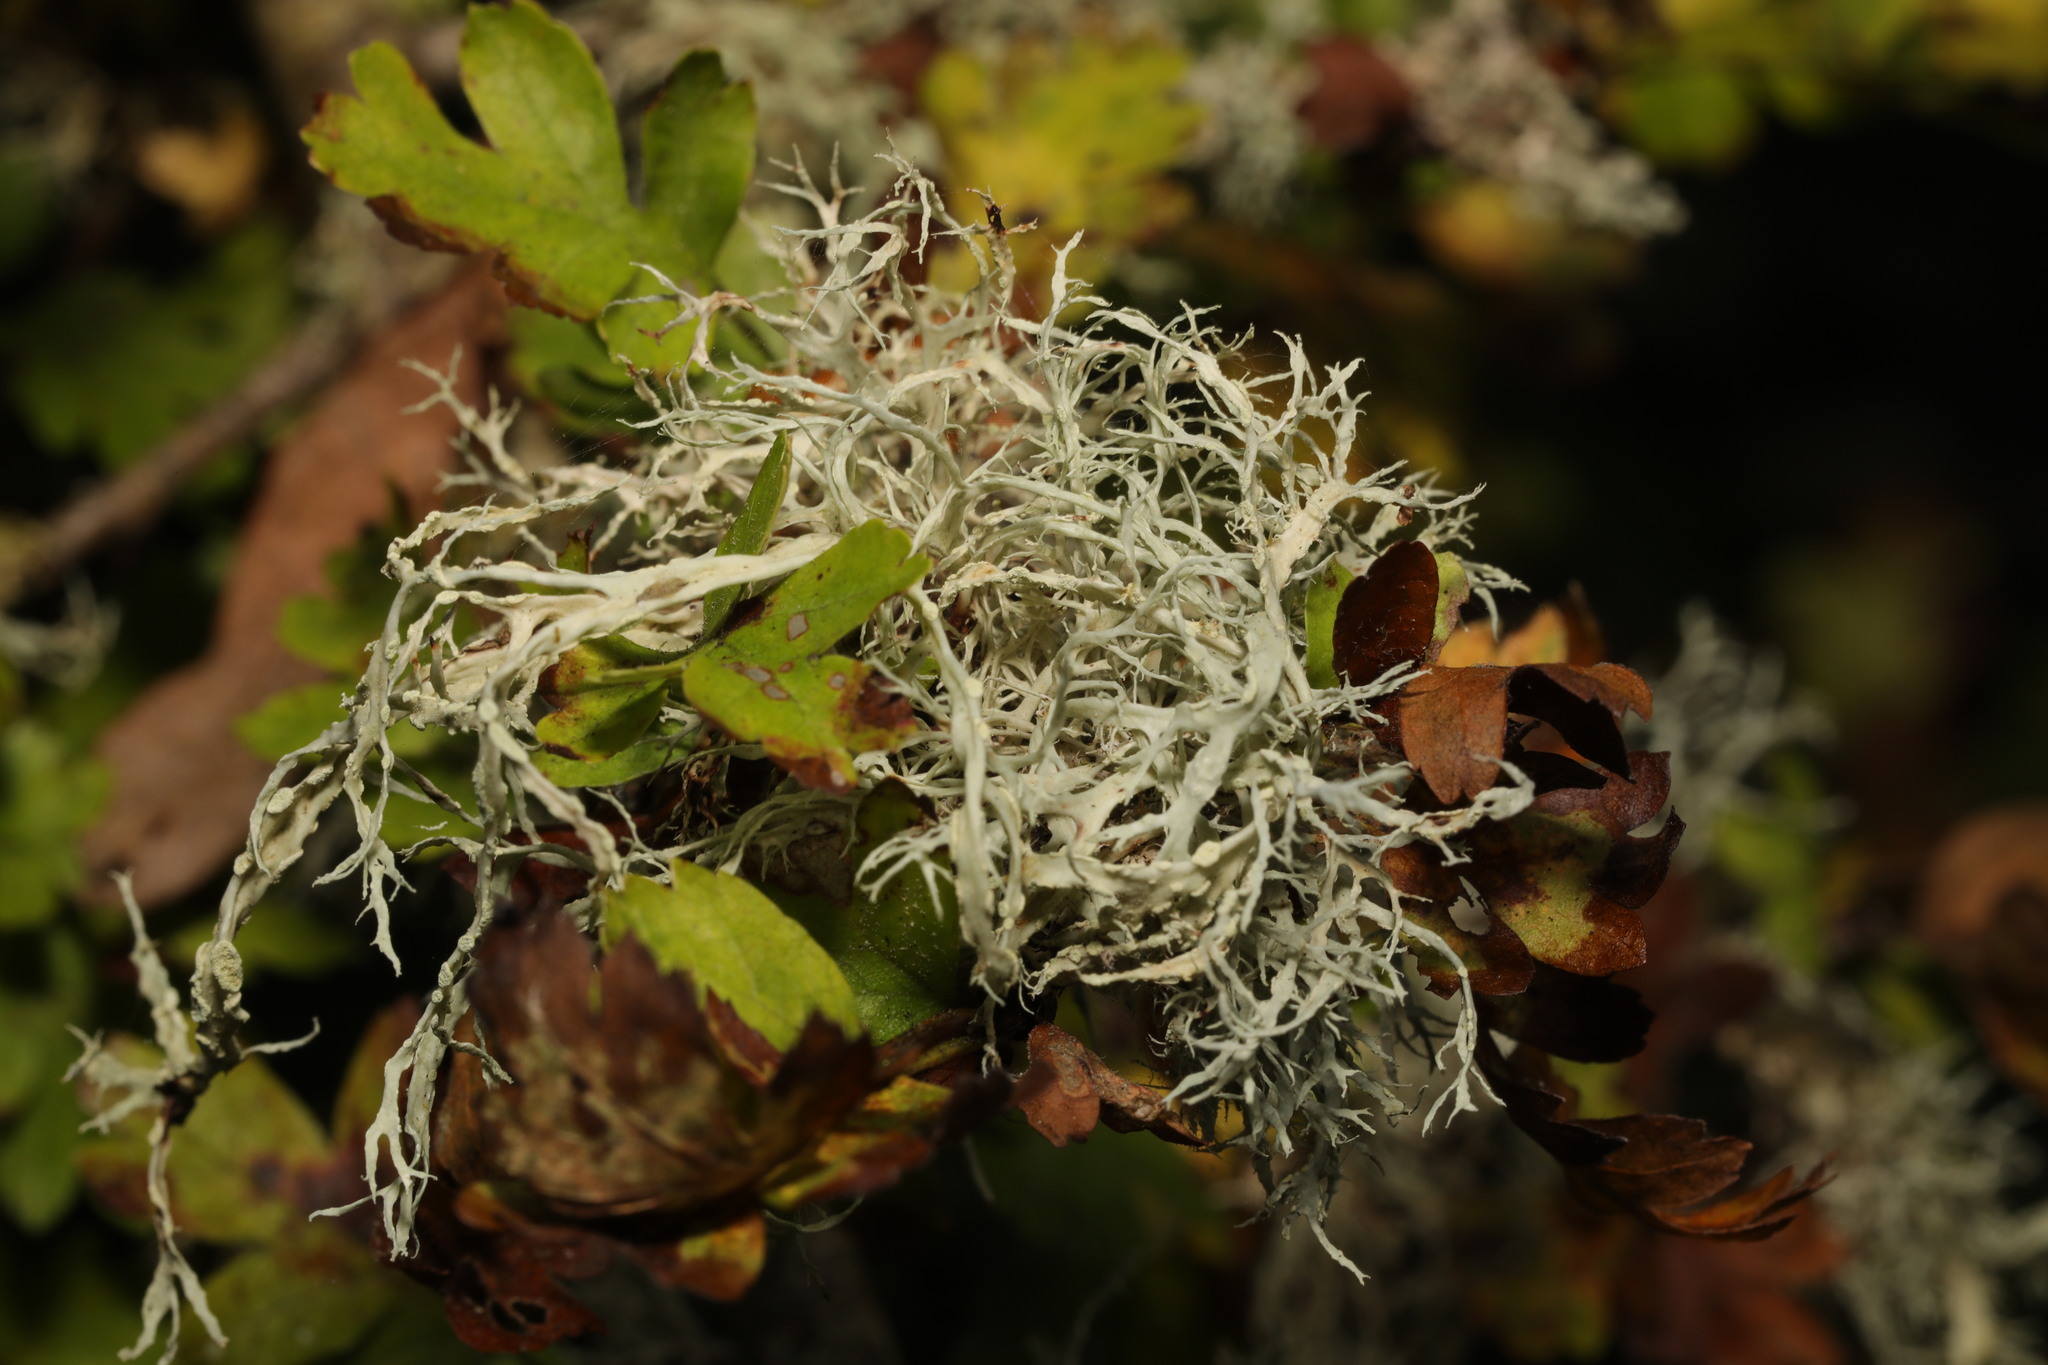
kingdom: Fungi
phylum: Ascomycota
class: Lecanoromycetes
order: Lecanorales
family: Ramalinaceae
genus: Ramalina
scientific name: Ramalina farinacea
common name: Farinose cartilage lichen
